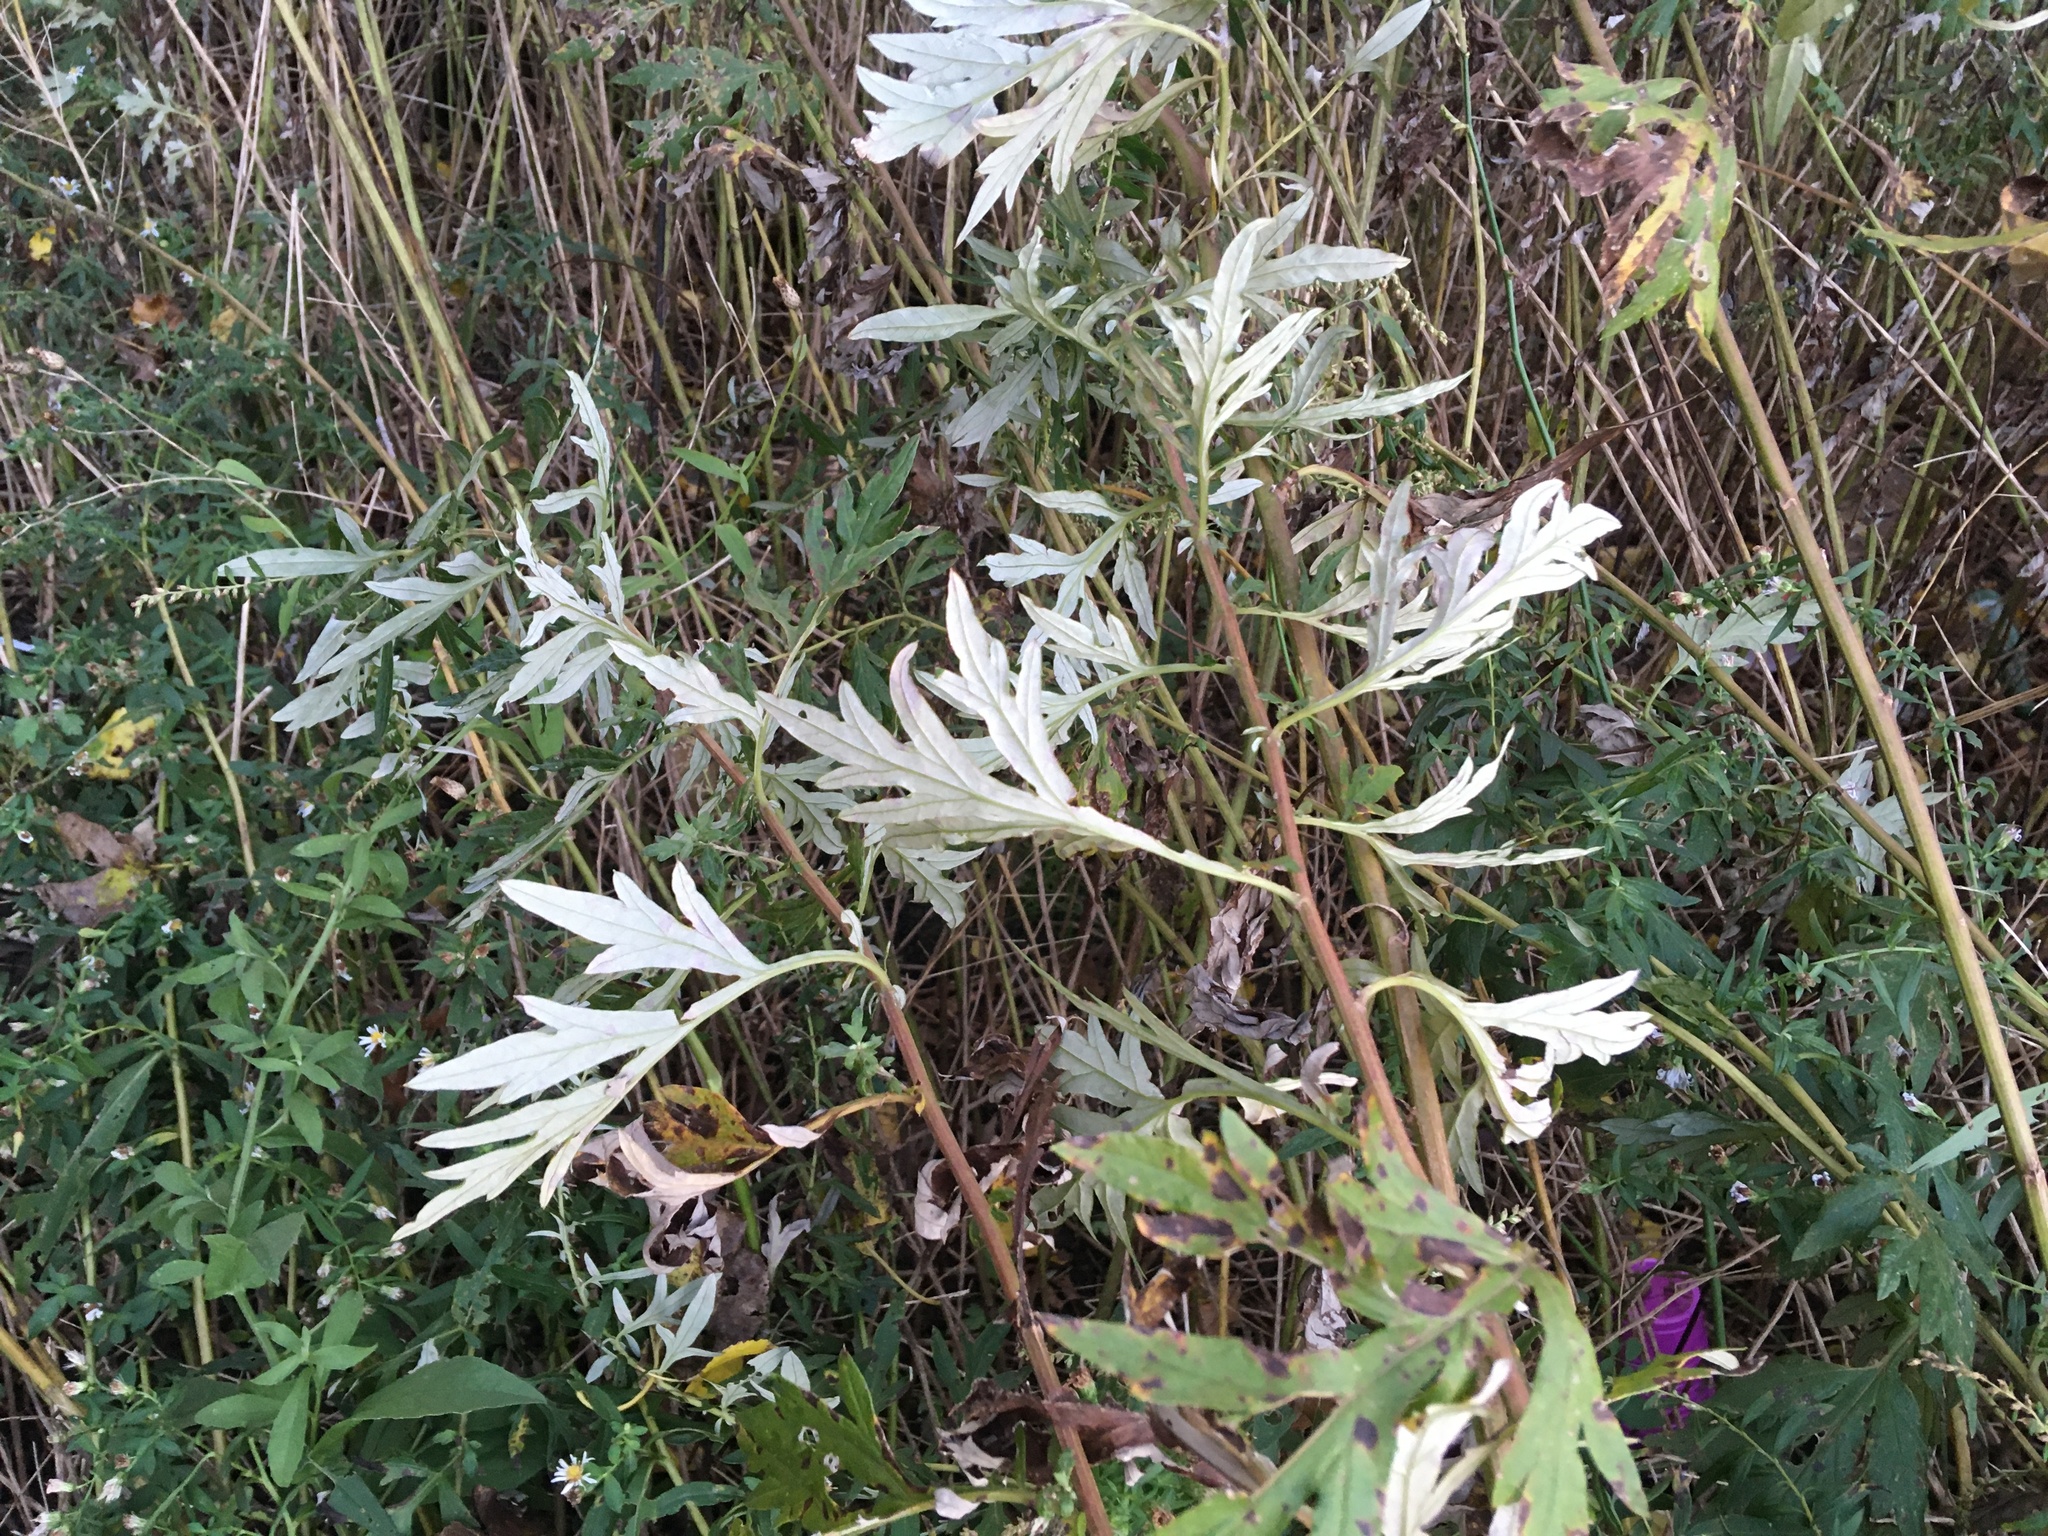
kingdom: Plantae
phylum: Tracheophyta
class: Magnoliopsida
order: Asterales
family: Asteraceae
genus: Artemisia
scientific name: Artemisia vulgaris
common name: Mugwort
